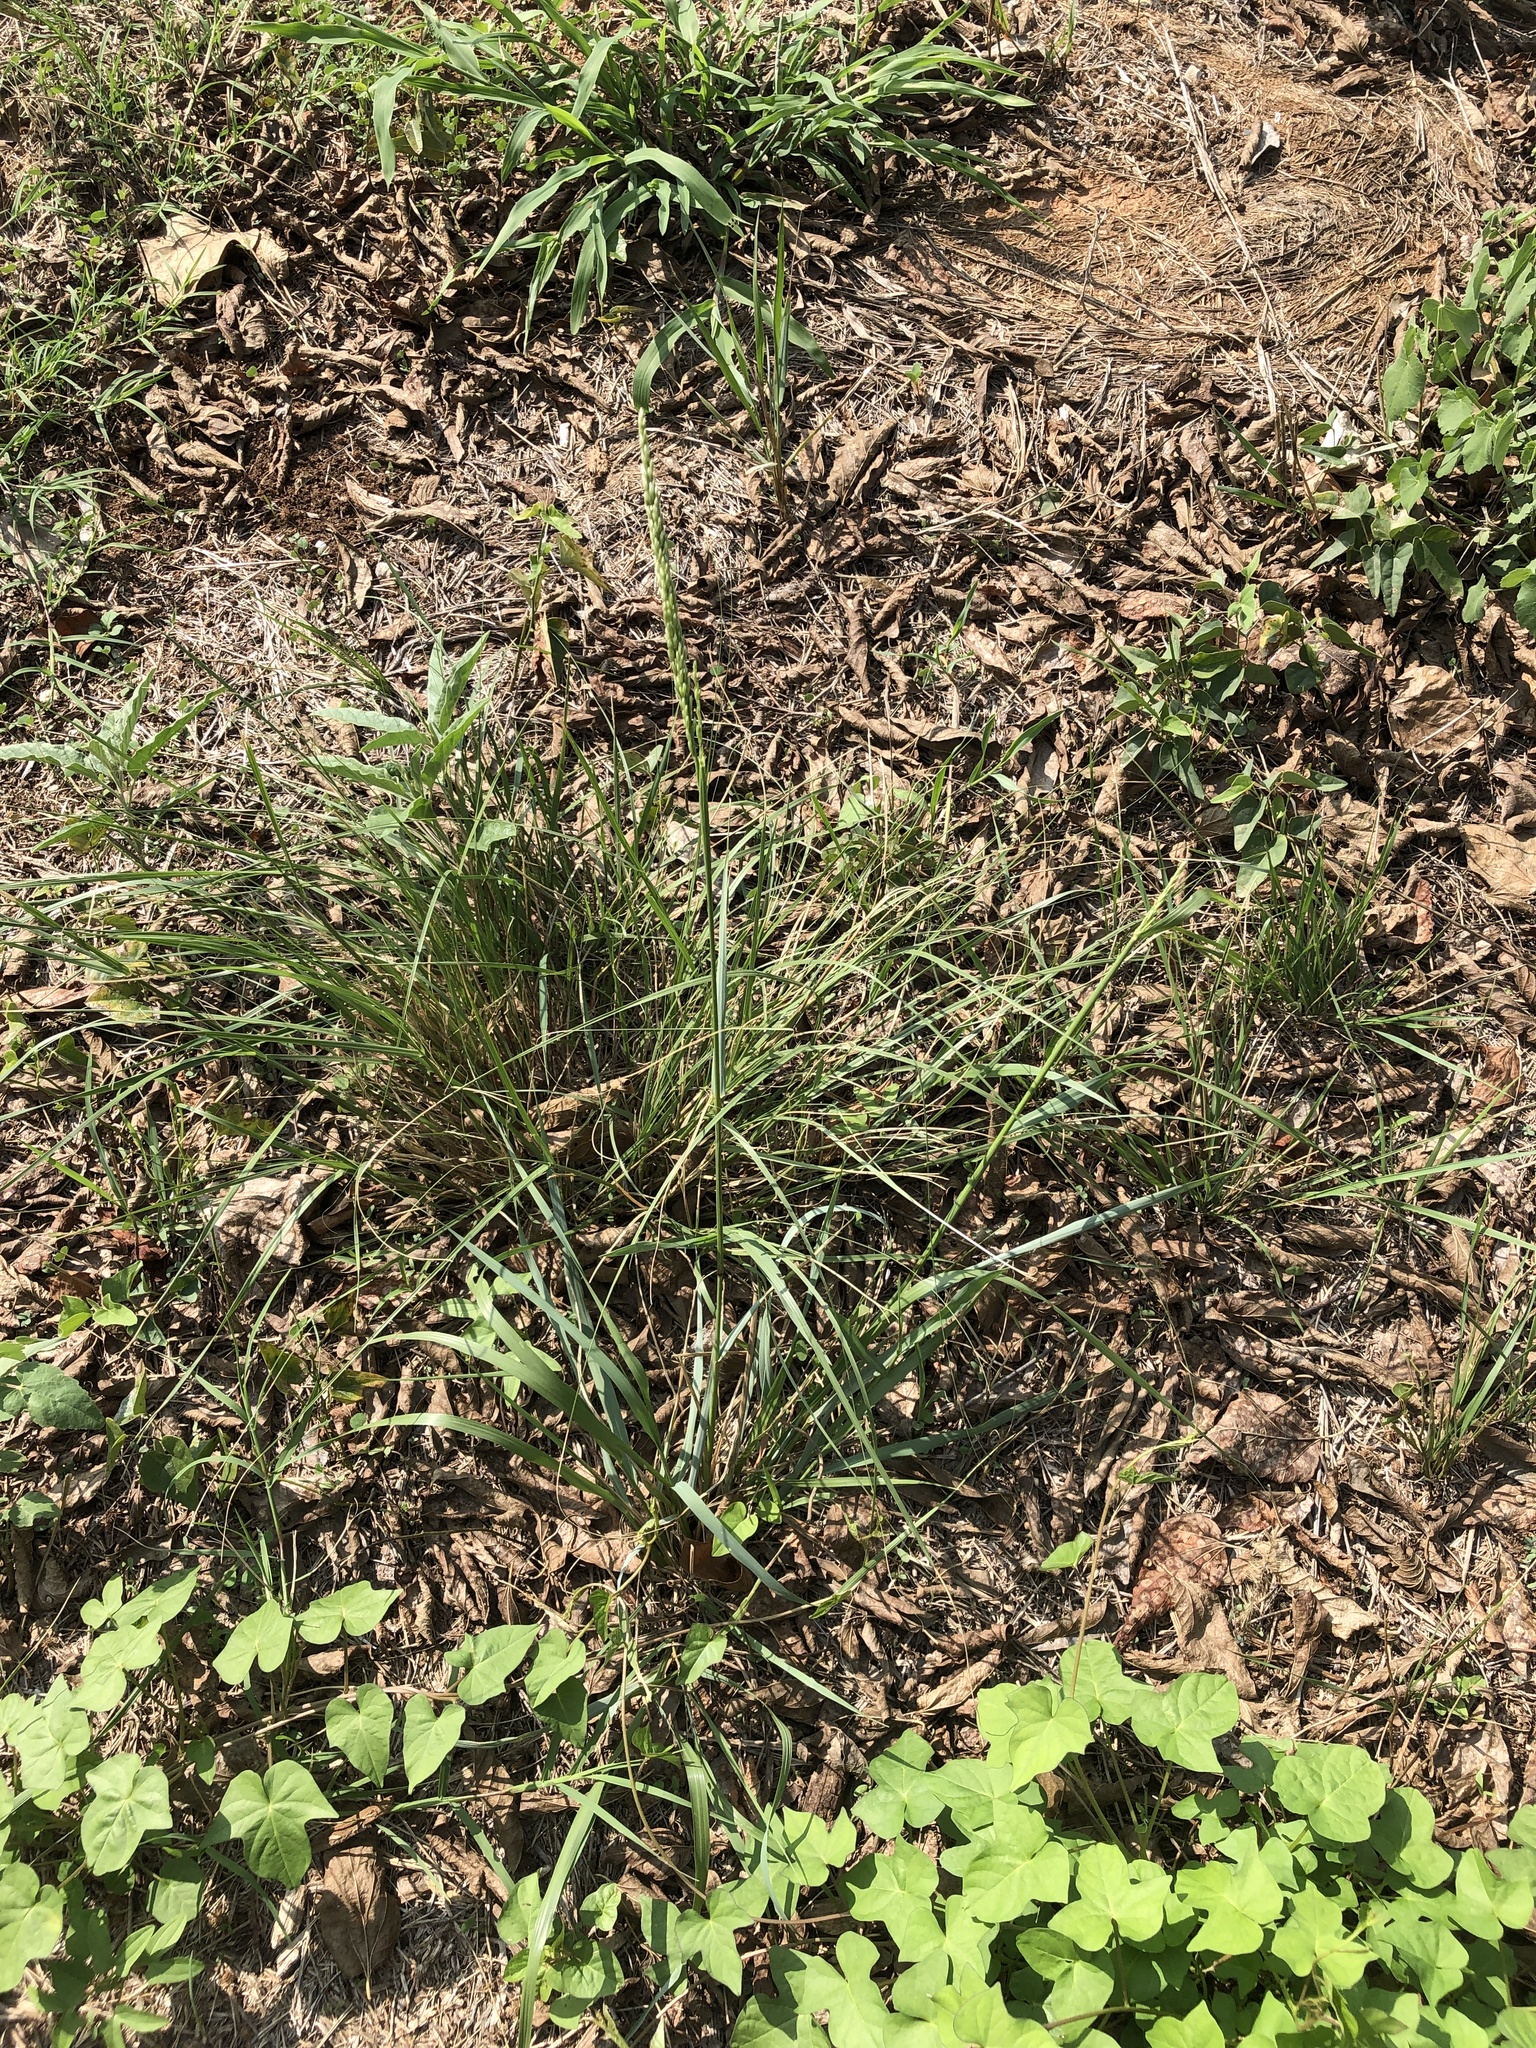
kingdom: Plantae
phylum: Tracheophyta
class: Liliopsida
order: Poales
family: Poaceae
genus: Tridens
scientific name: Tridens albescens
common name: White tridens
